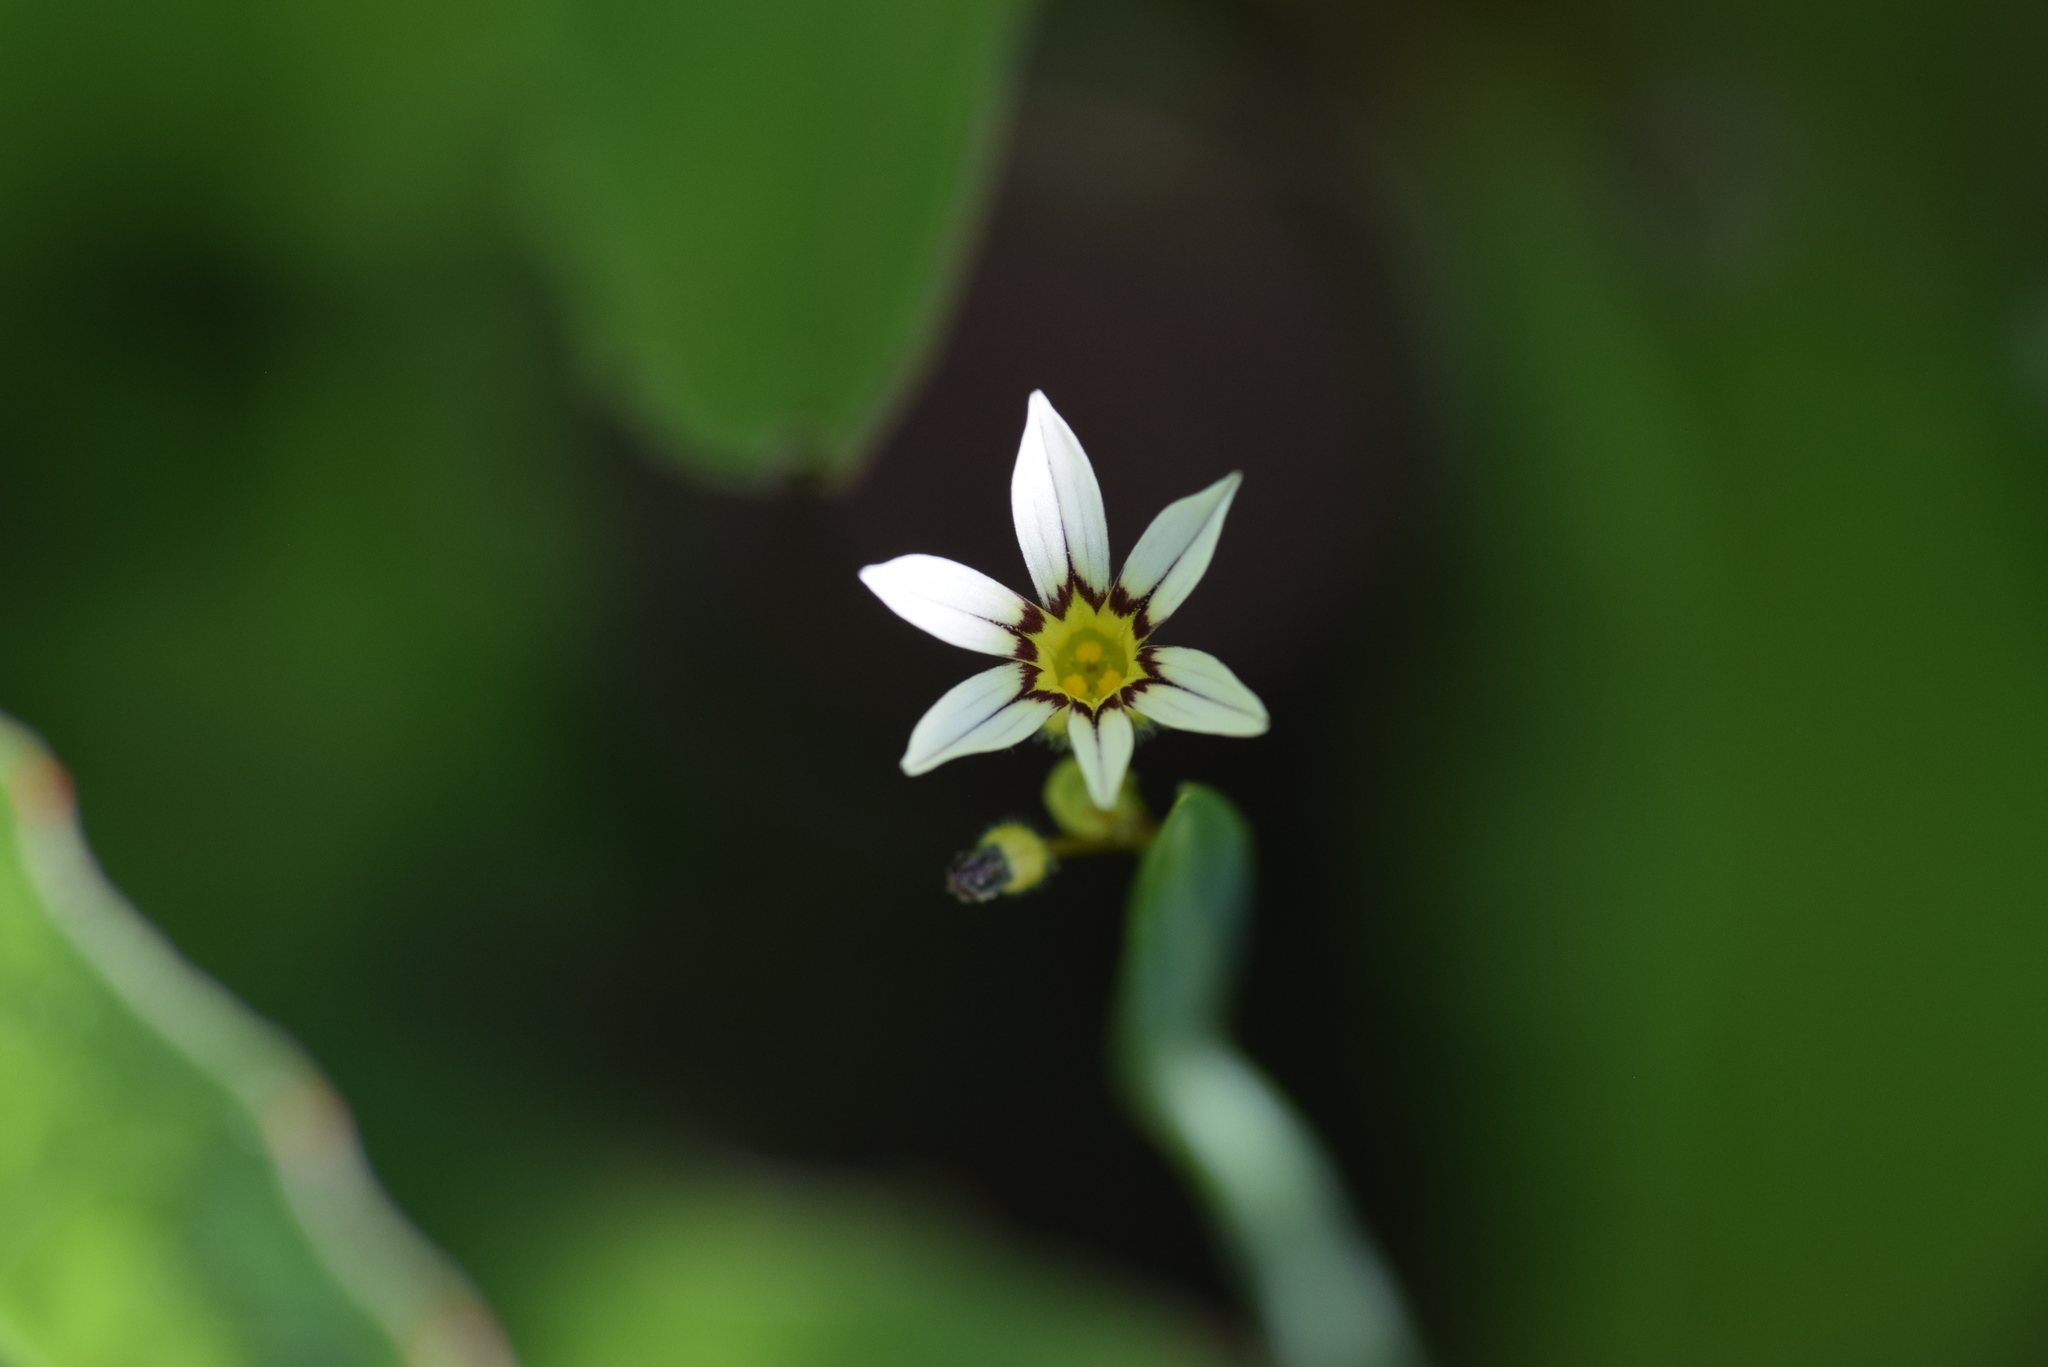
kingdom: Plantae
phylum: Tracheophyta
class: Liliopsida
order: Asparagales
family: Iridaceae
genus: Sisyrinchium
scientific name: Sisyrinchium micranthum
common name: Bermuda pigroot
